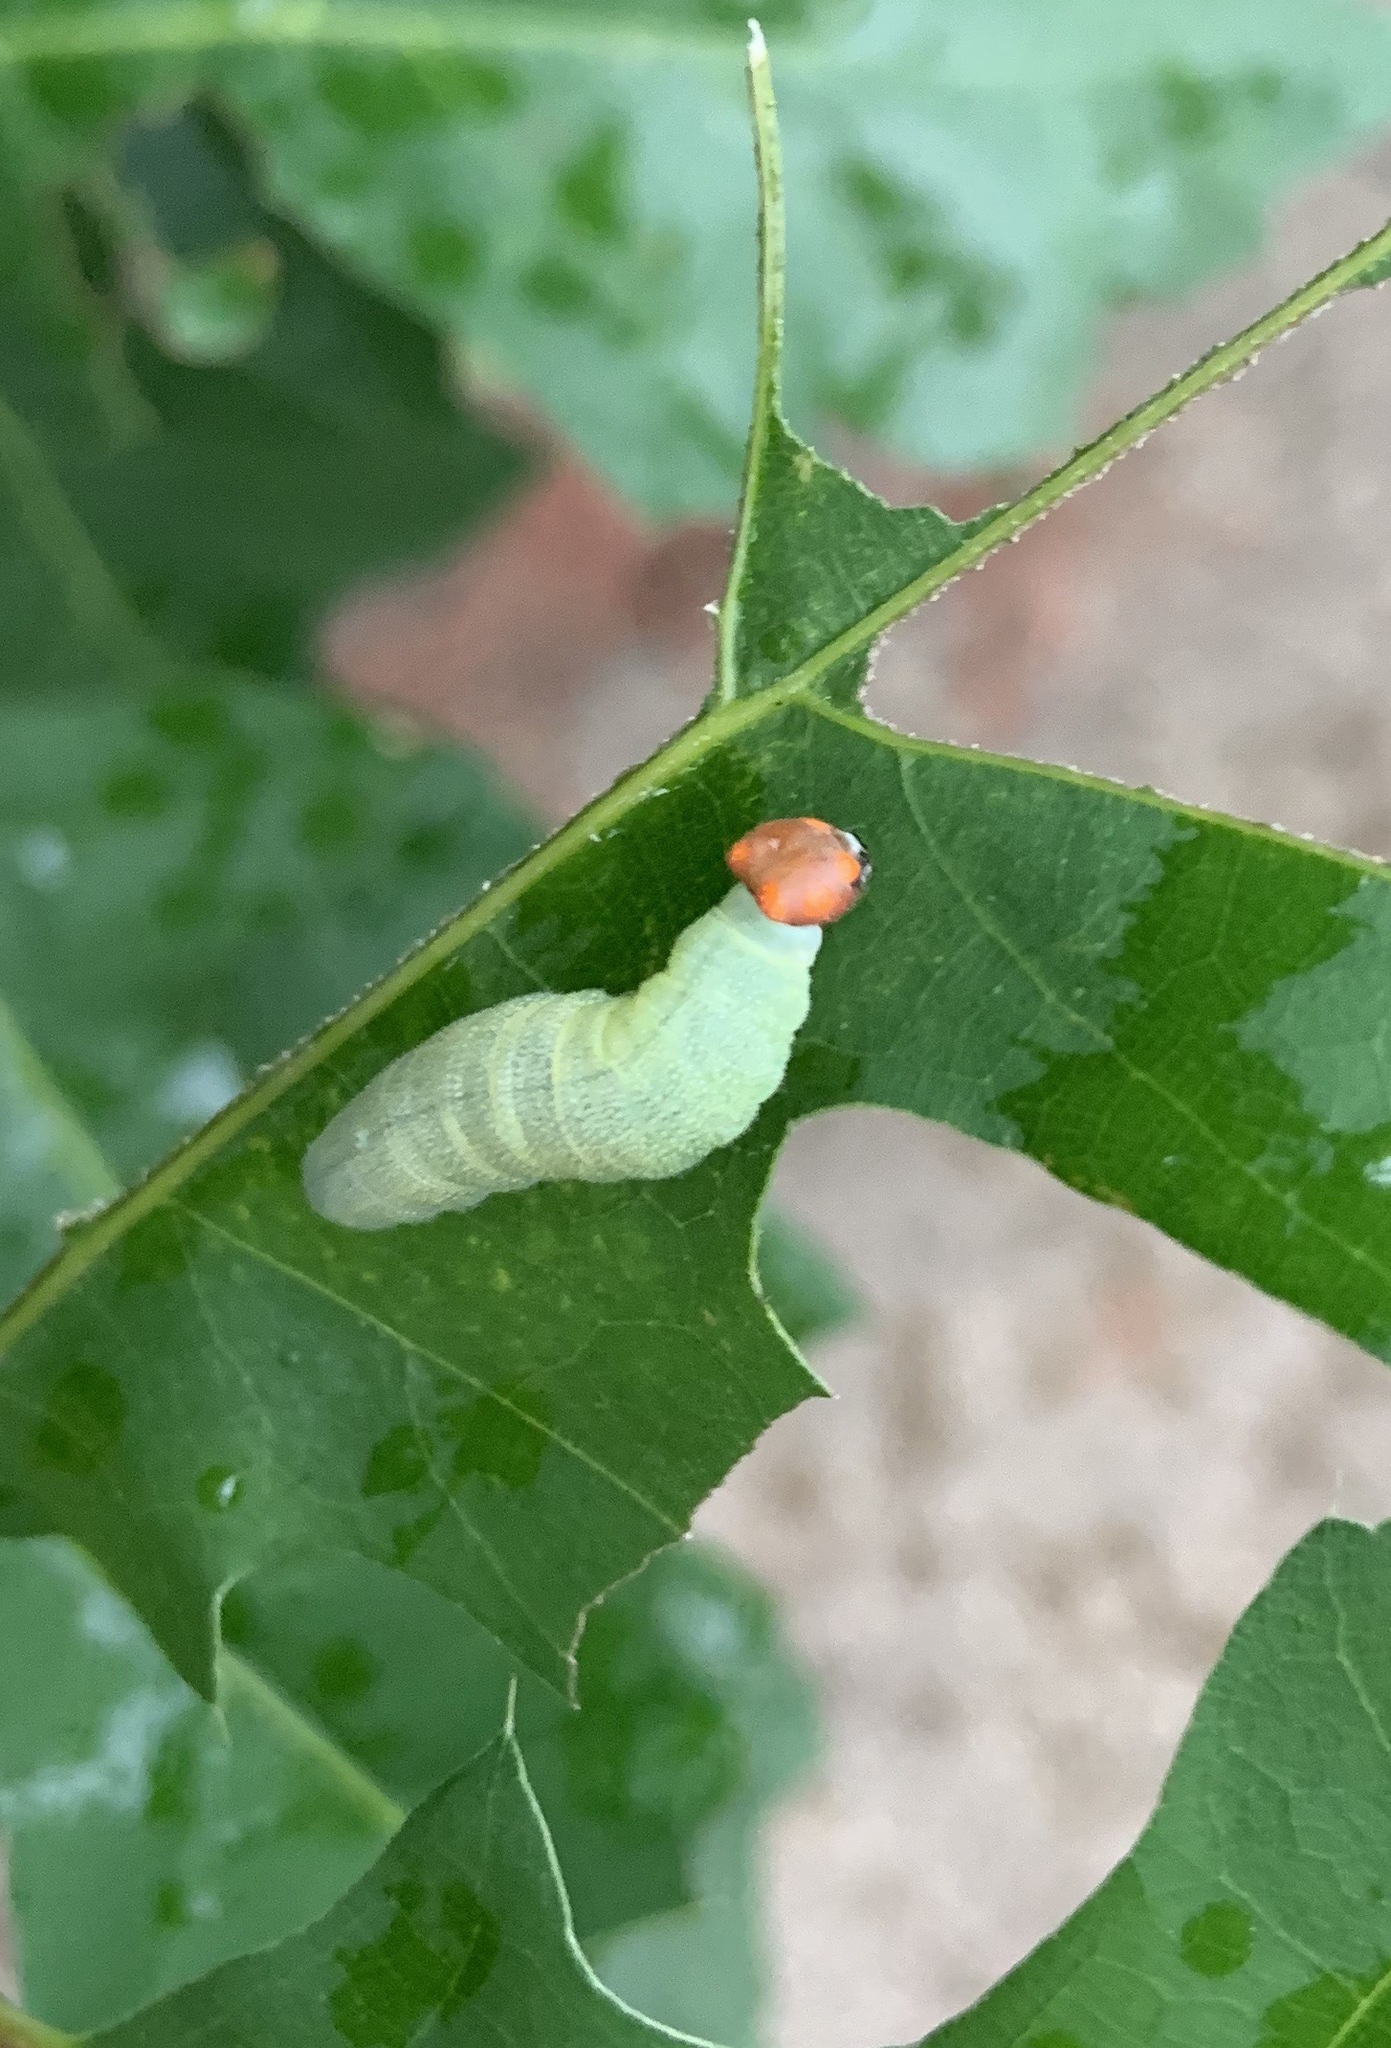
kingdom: Animalia
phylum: Arthropoda
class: Insecta
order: Lepidoptera
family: Hesperiidae
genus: Erynnis
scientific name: Erynnis horatius
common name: Horace's duskywing
